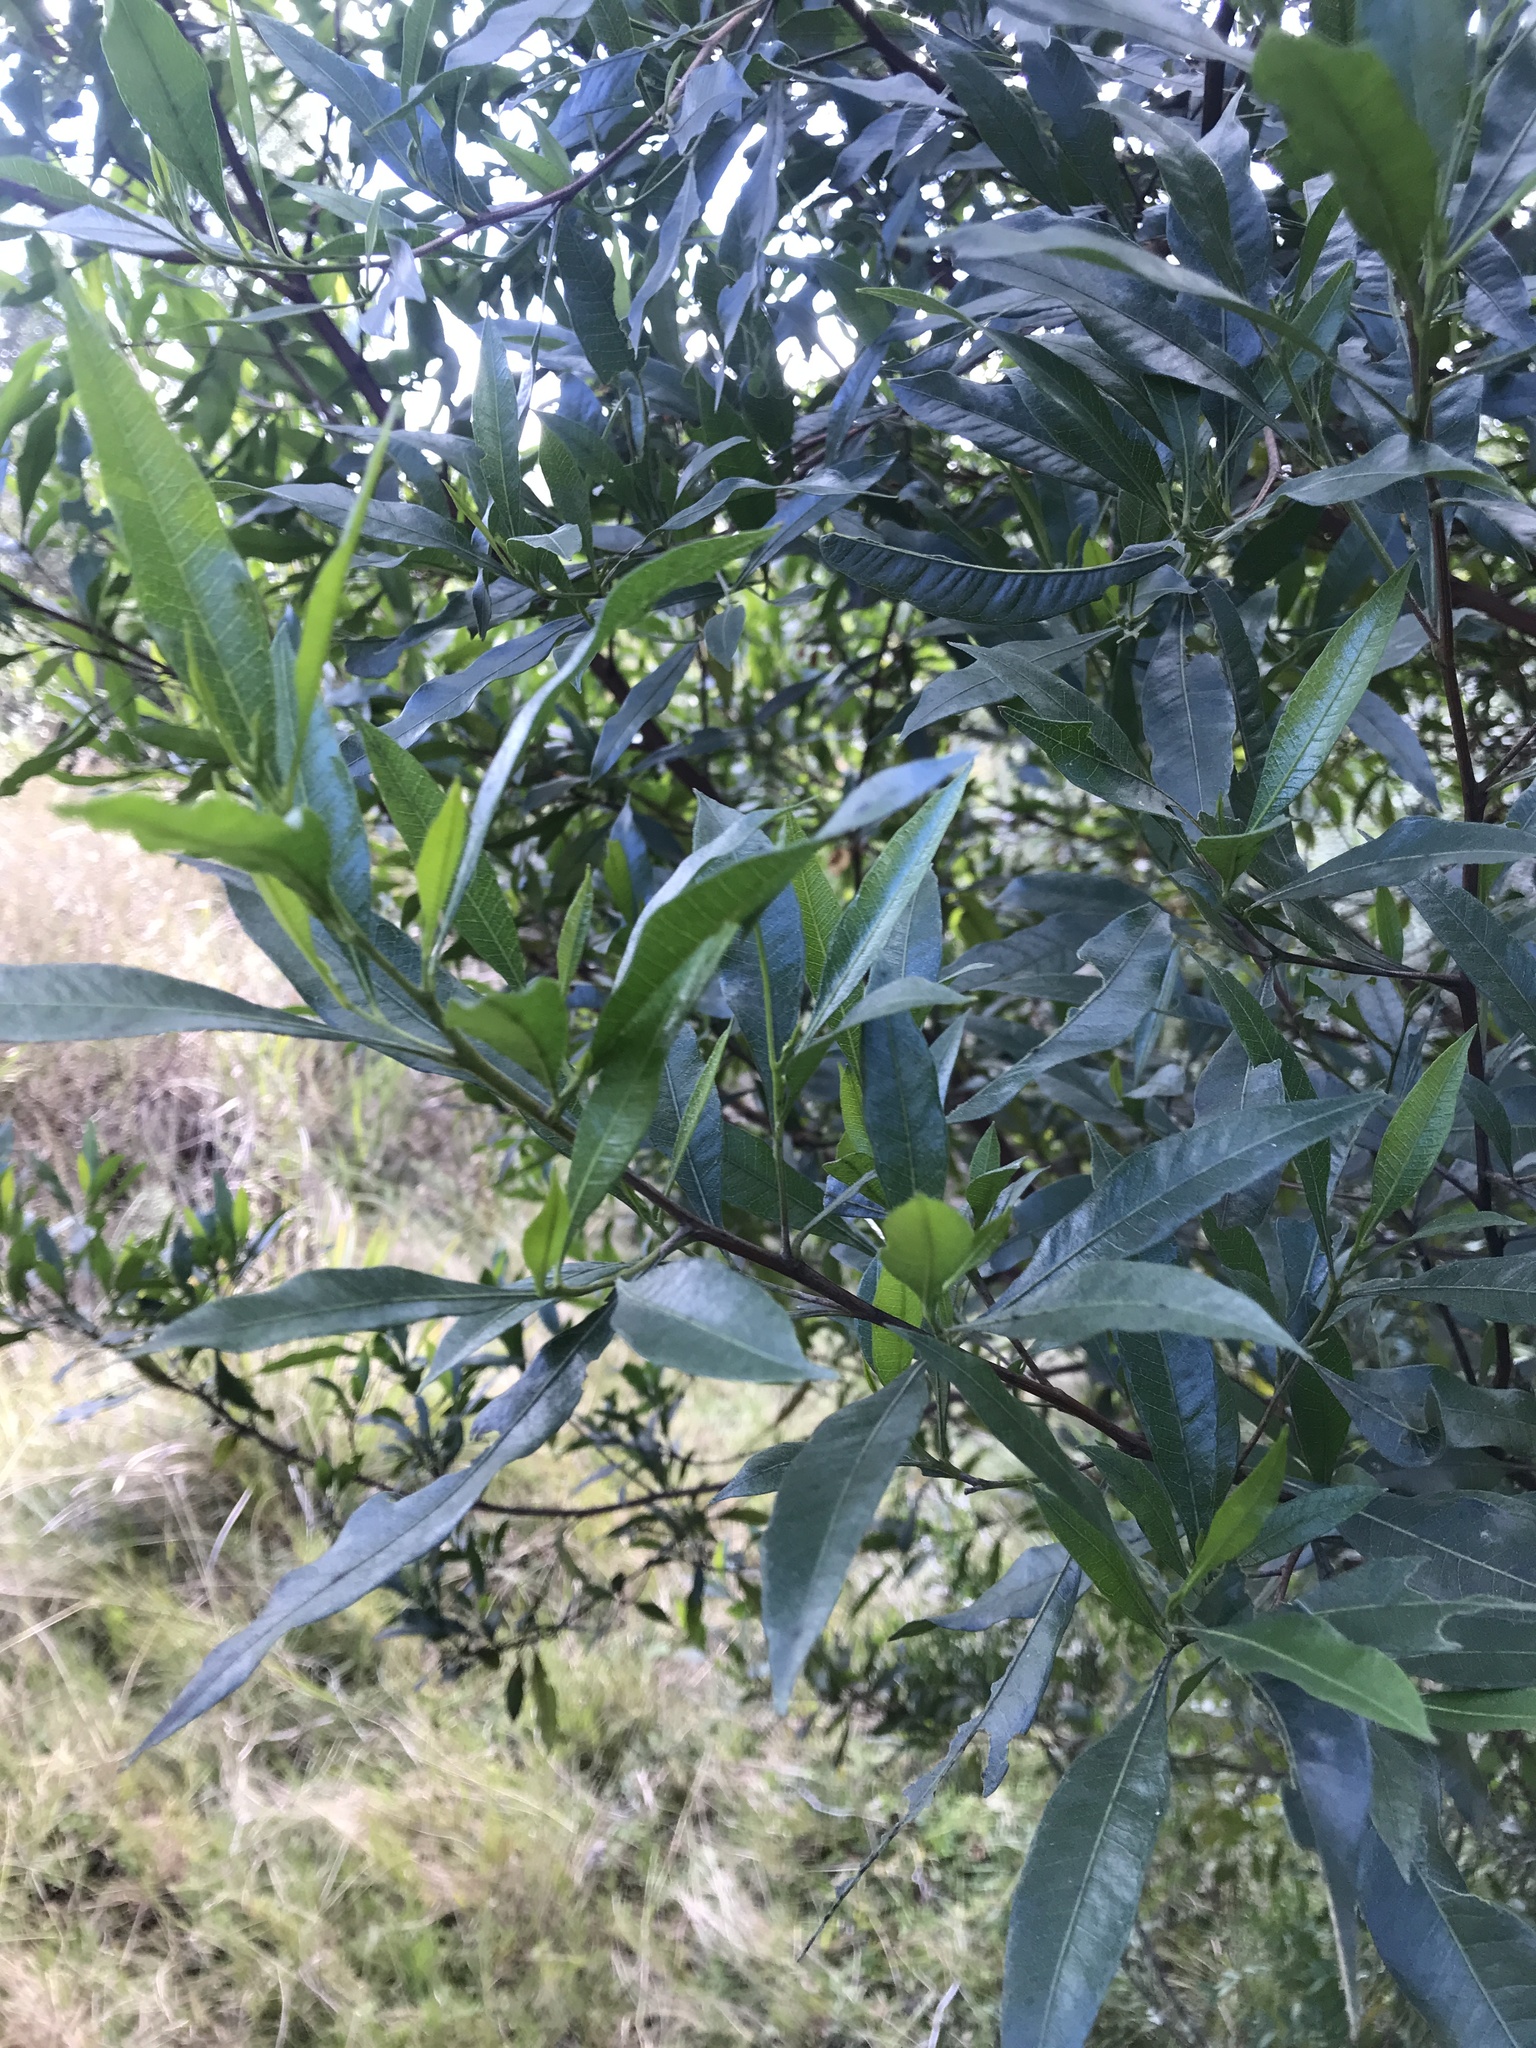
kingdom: Plantae
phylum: Tracheophyta
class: Magnoliopsida
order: Sapindales
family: Sapindaceae
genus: Dodonaea
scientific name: Dodonaea viscosa
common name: Hopbush
